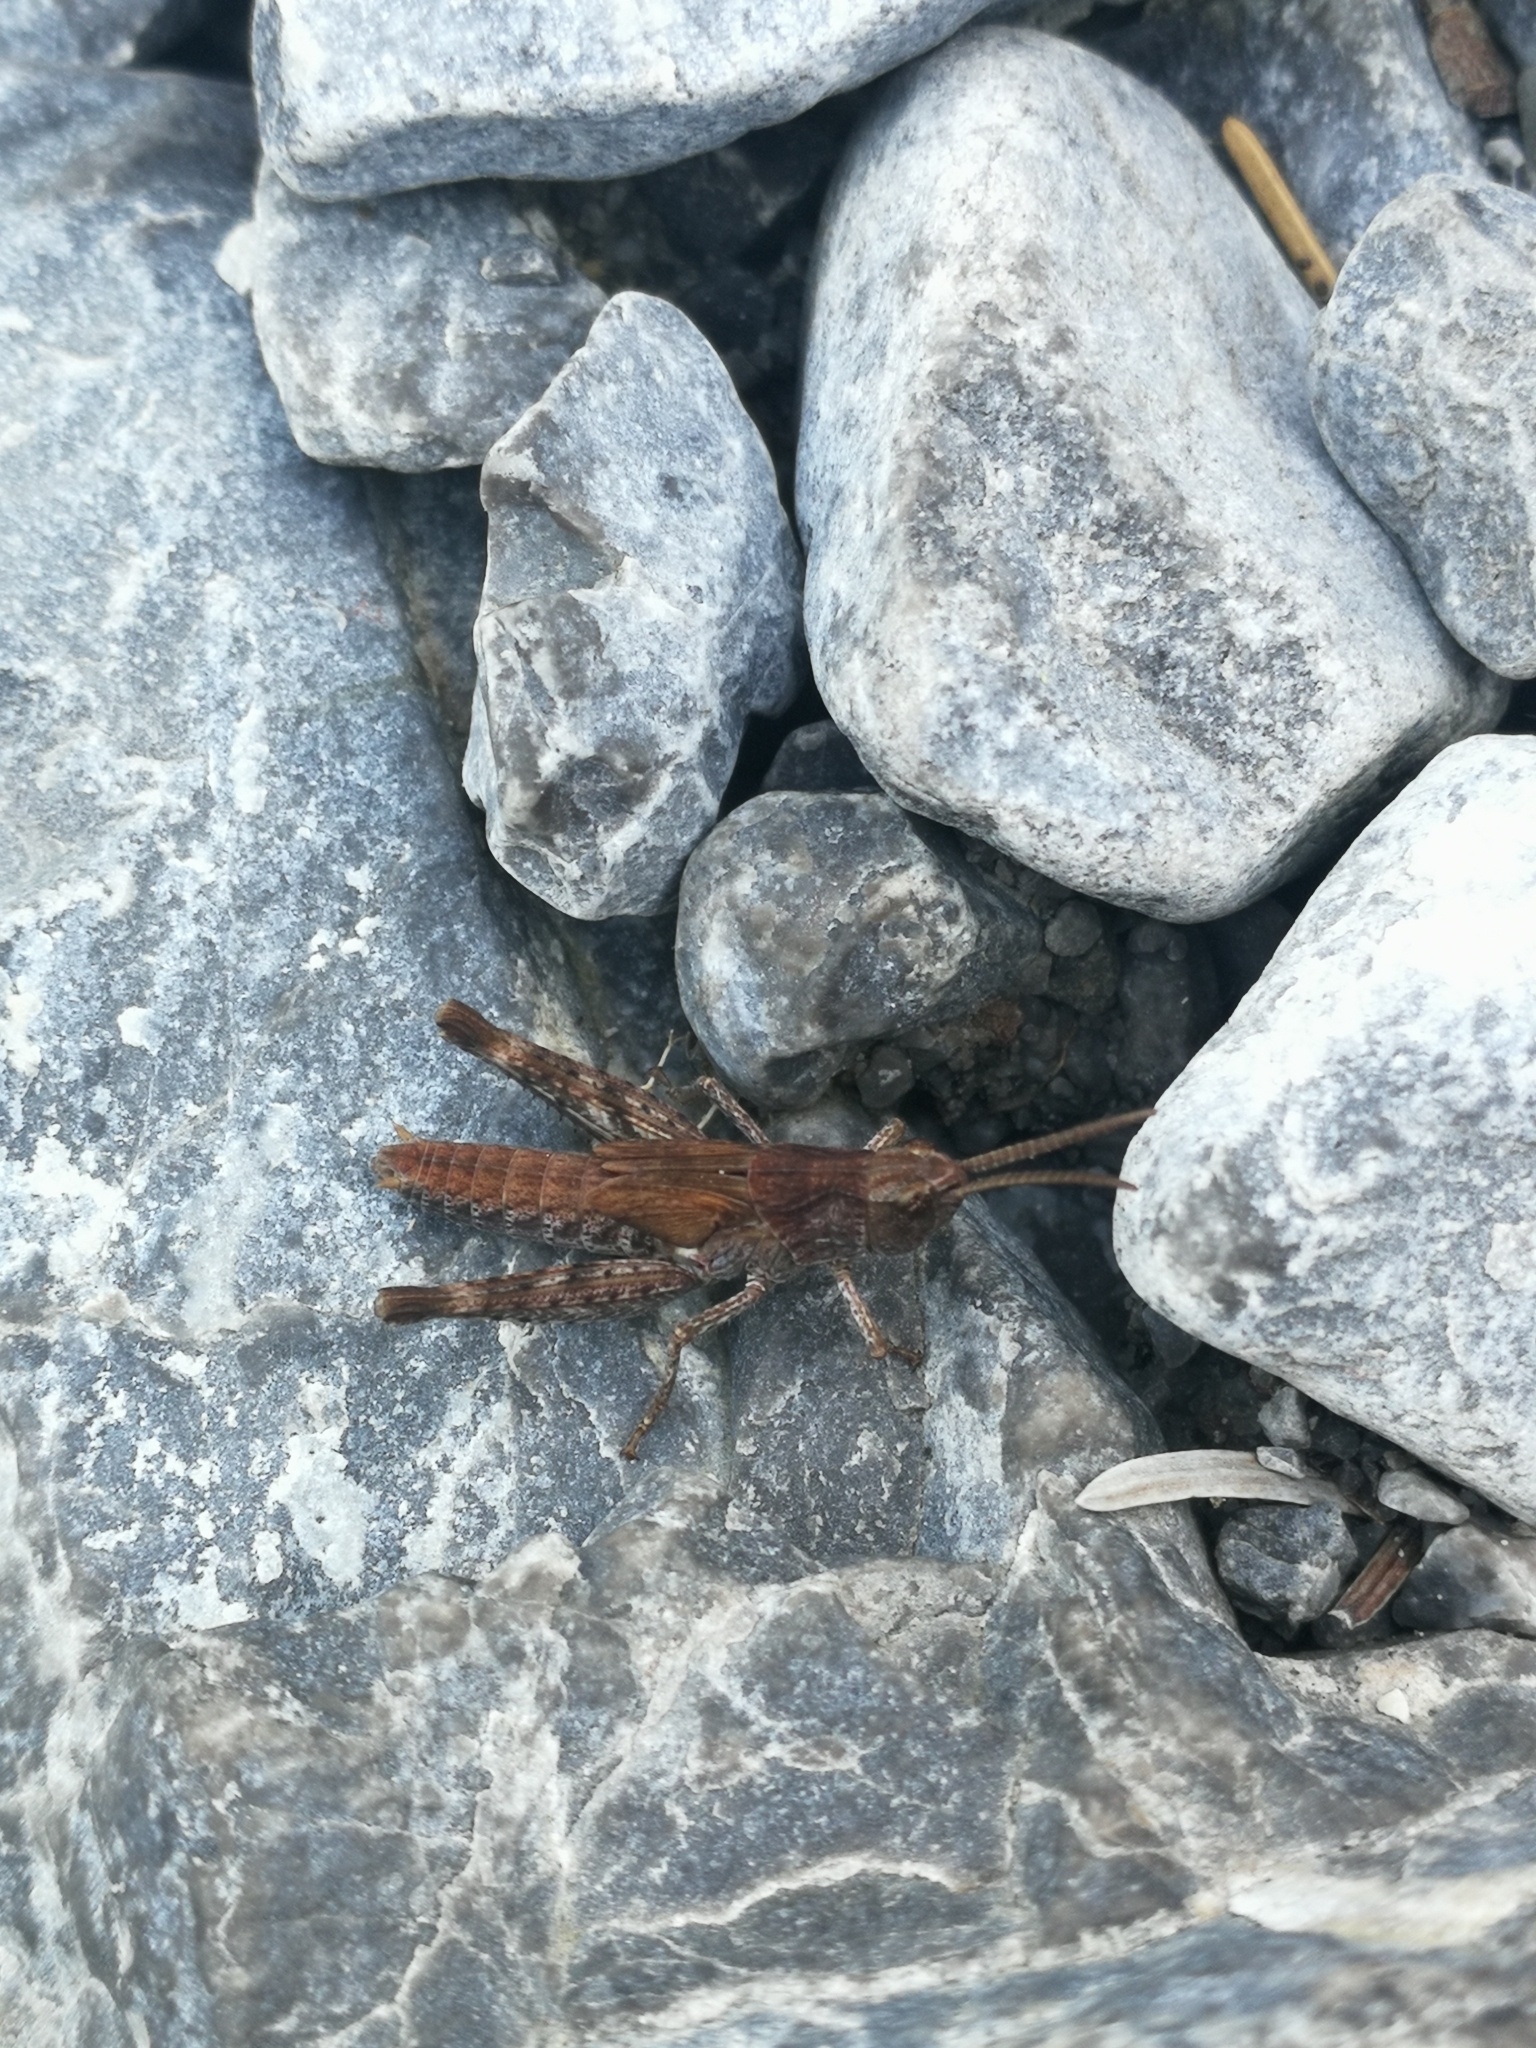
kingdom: Animalia
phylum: Arthropoda
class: Insecta
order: Orthoptera
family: Acrididae
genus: Glyptobothrus
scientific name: Glyptobothrus
